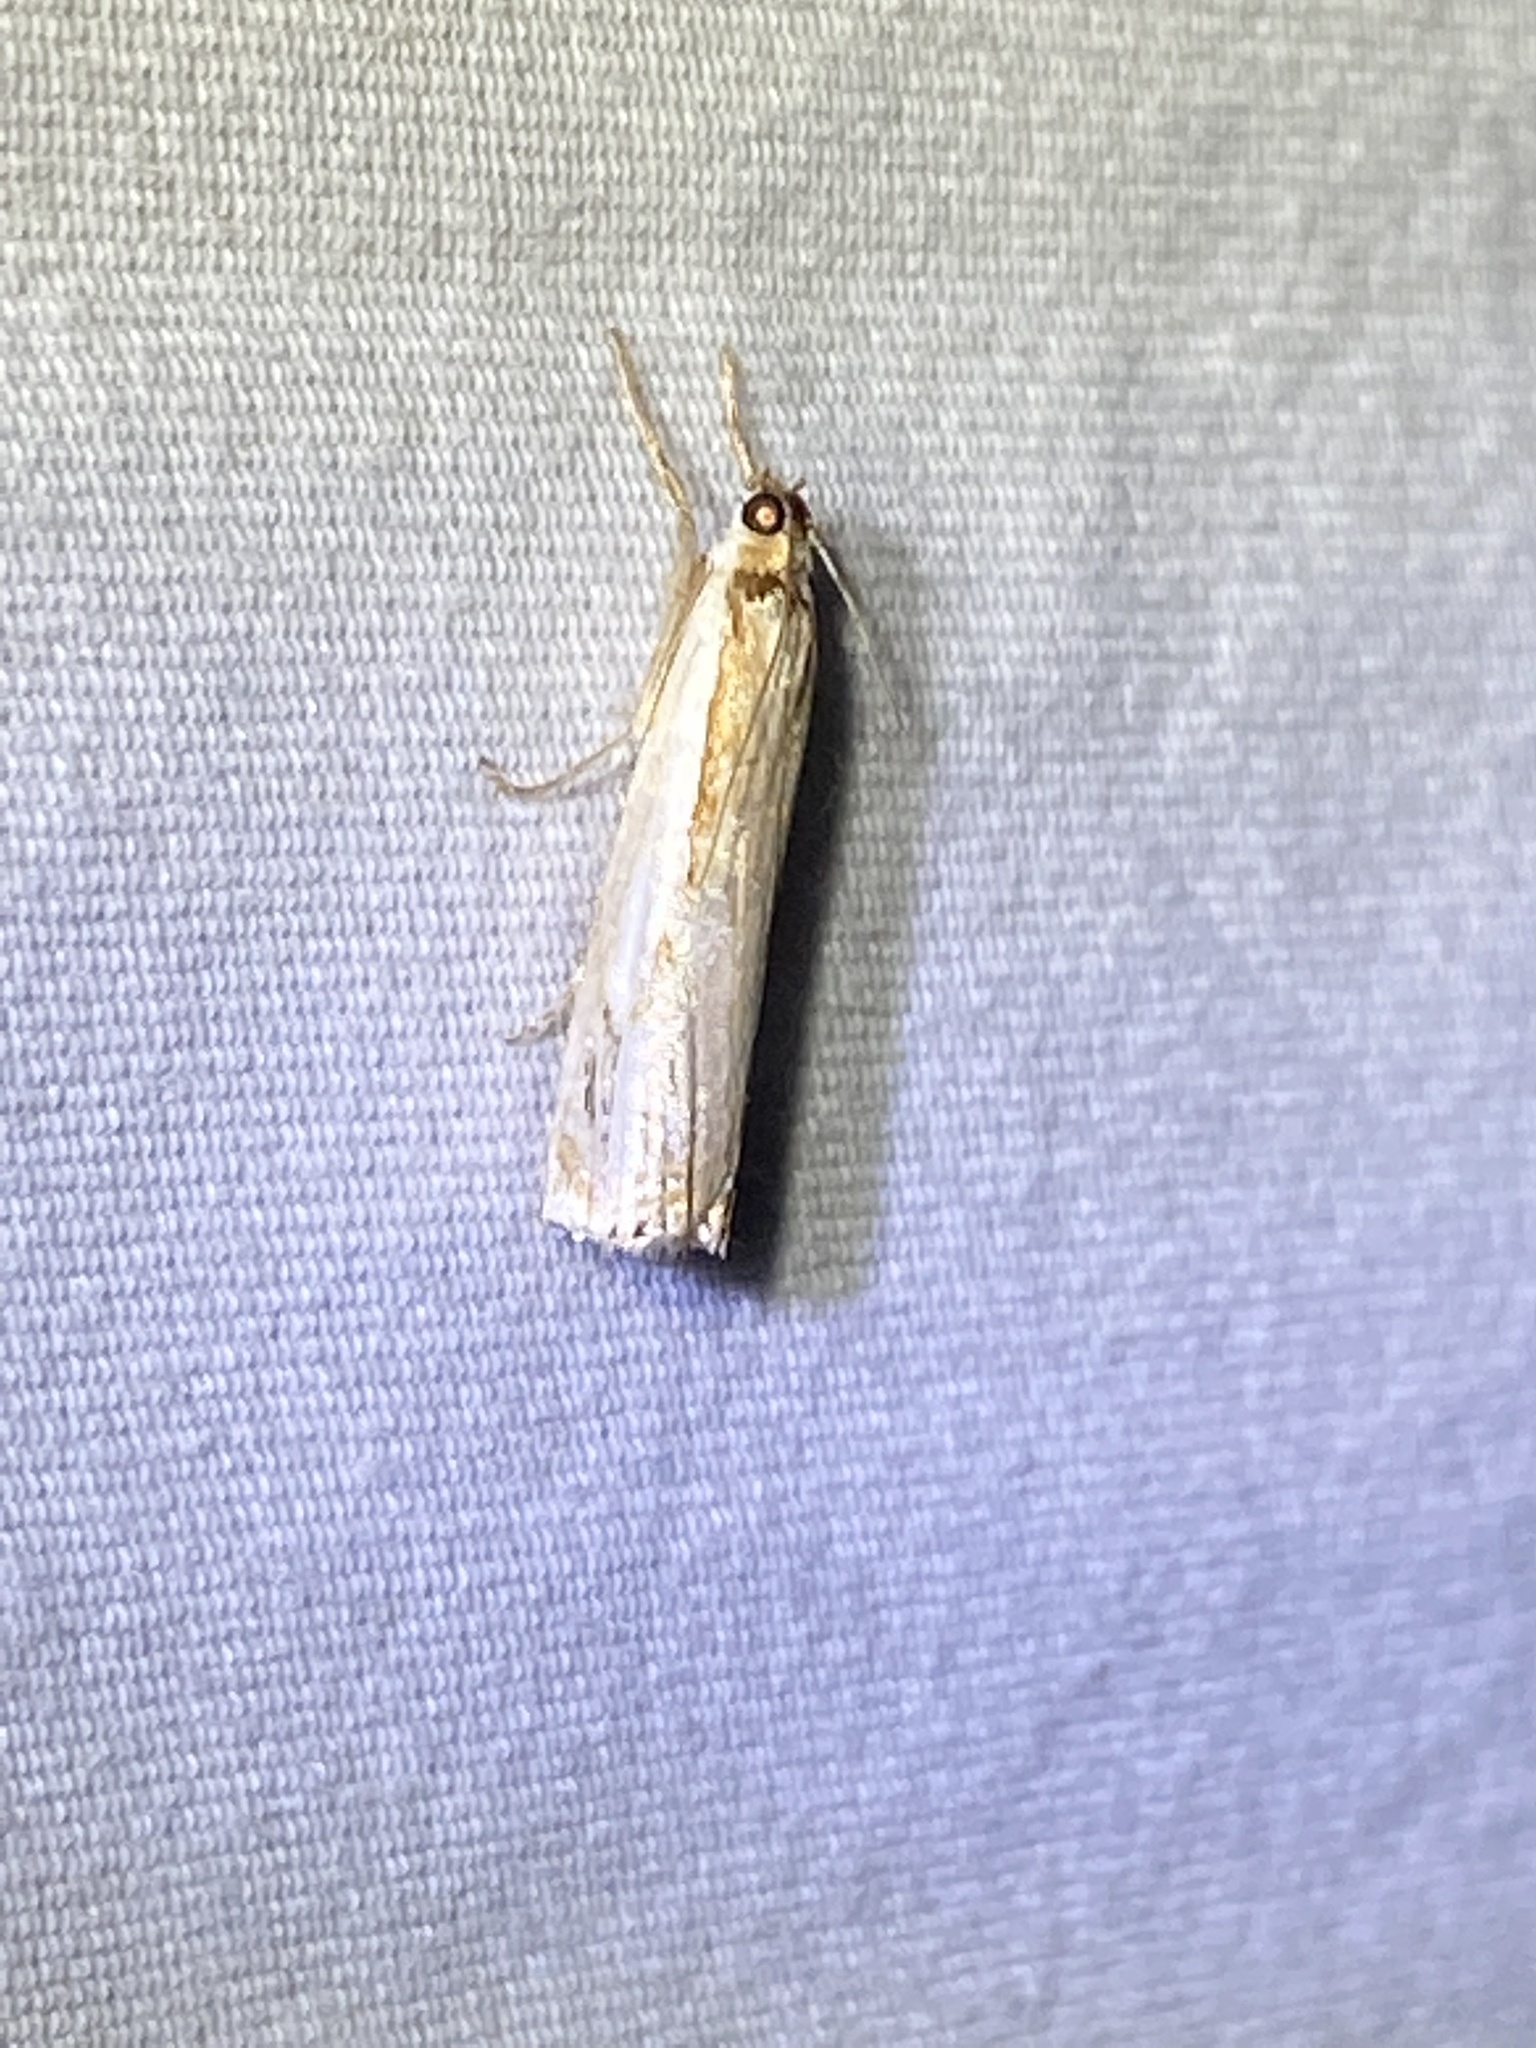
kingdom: Animalia
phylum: Arthropoda
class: Insecta
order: Lepidoptera
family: Crambidae
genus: Crambus
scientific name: Crambus agitatellus
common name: Double-banded grass-veneer
